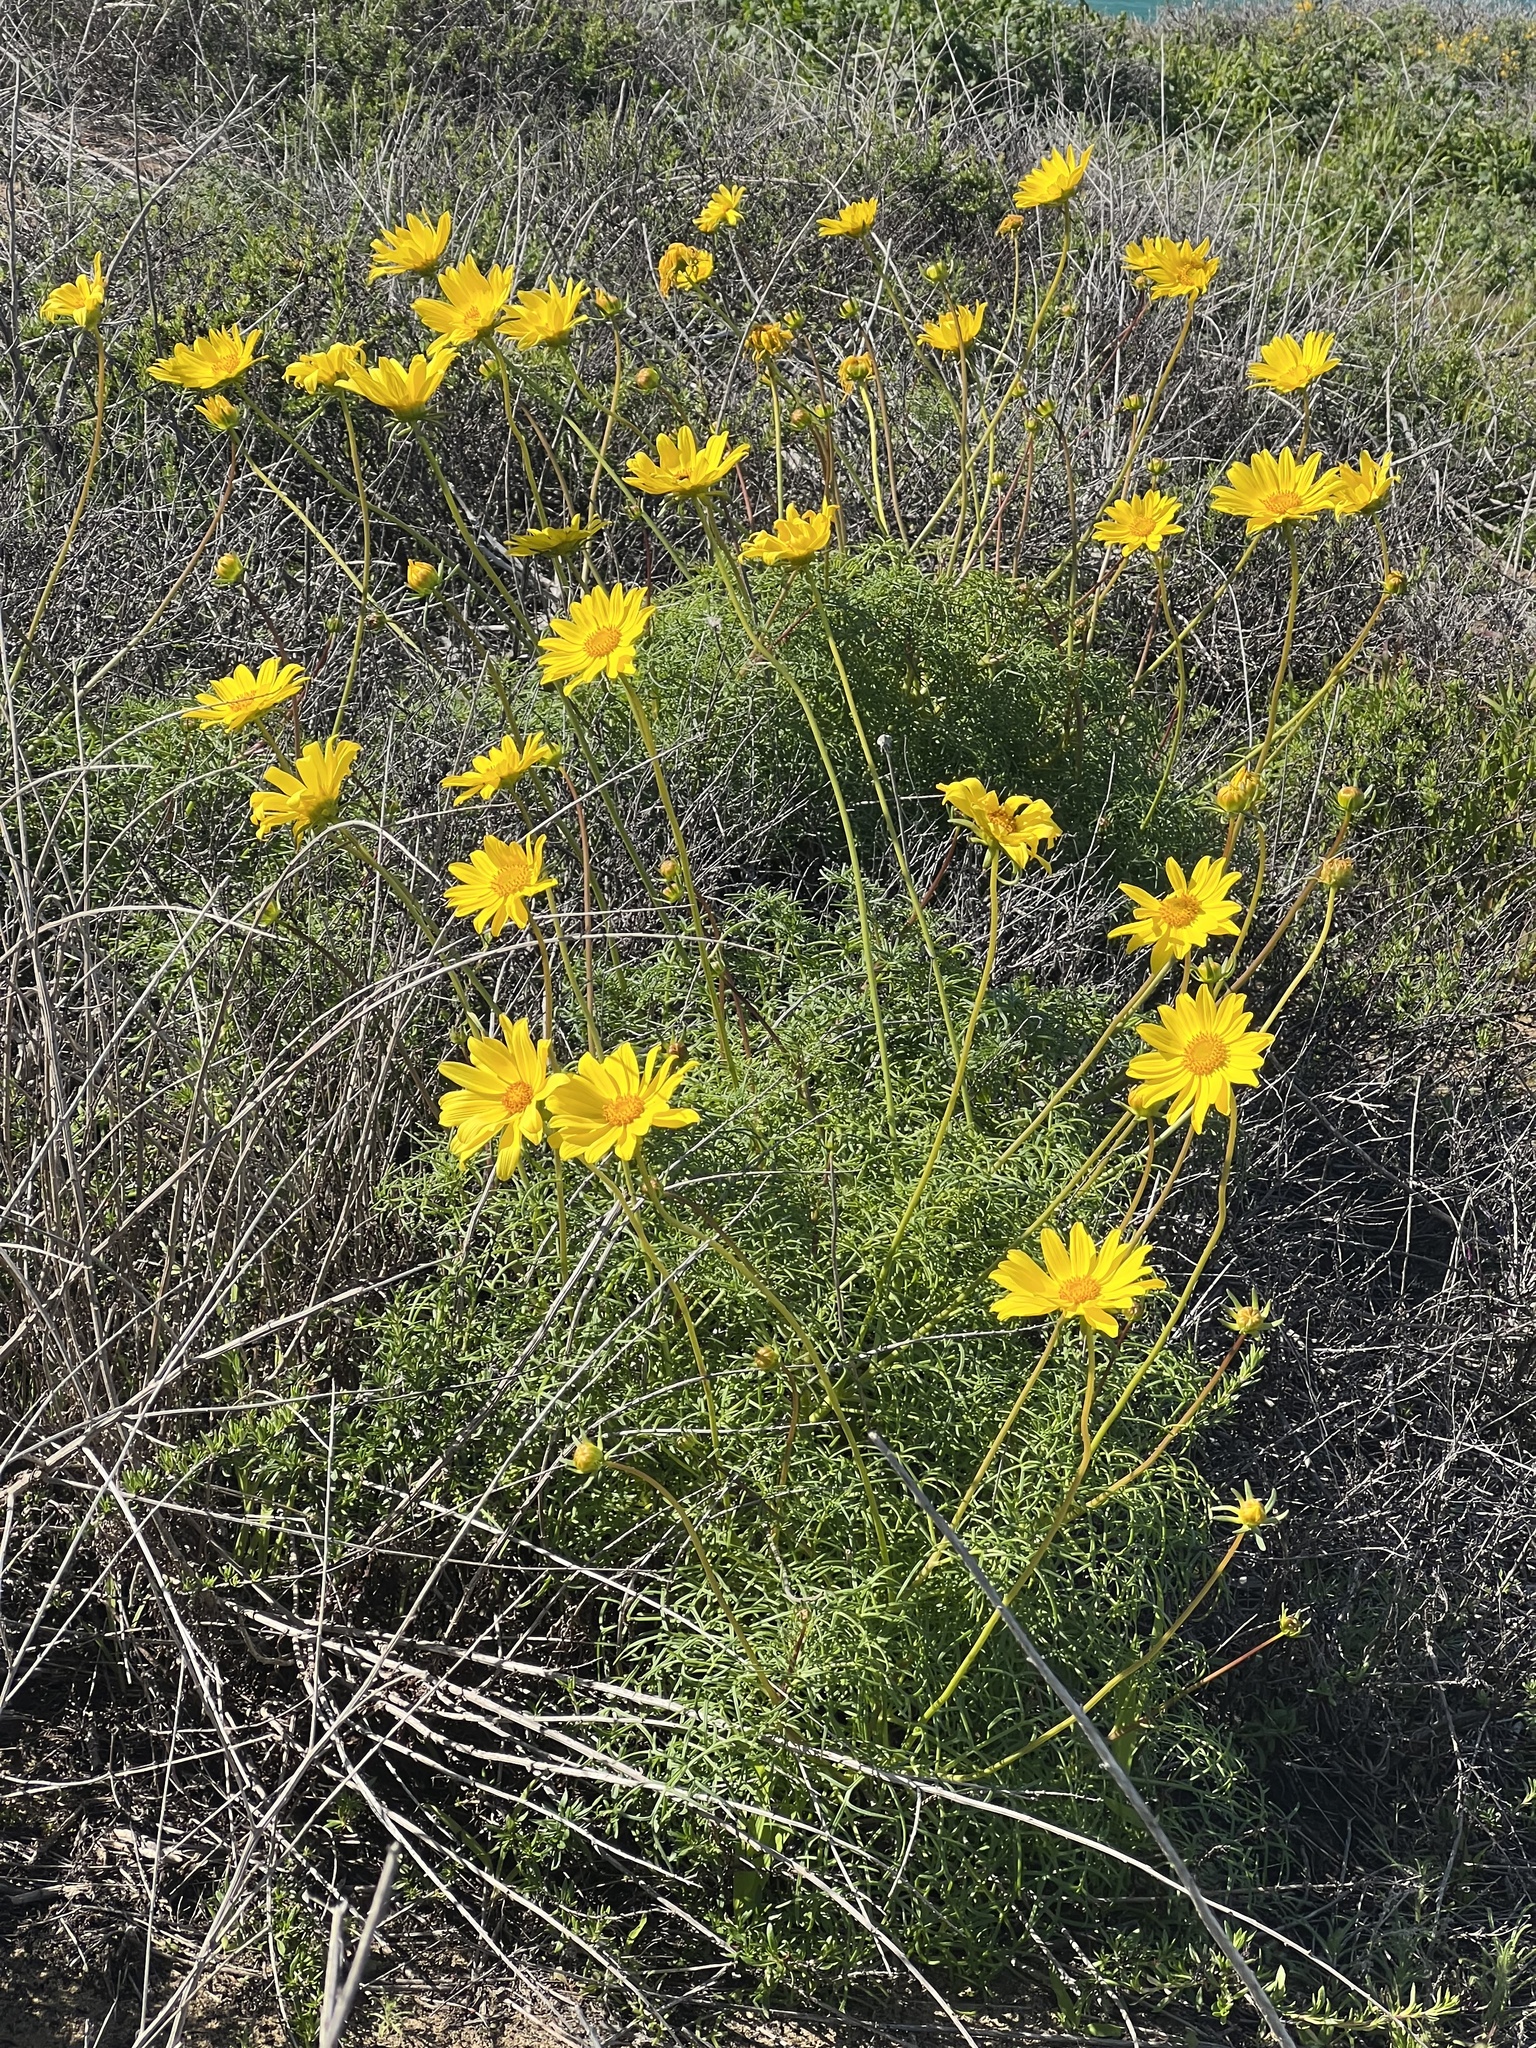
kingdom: Plantae
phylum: Tracheophyta
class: Magnoliopsida
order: Asterales
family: Asteraceae
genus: Coreopsis
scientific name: Coreopsis maritima
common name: Sea-dahlia
